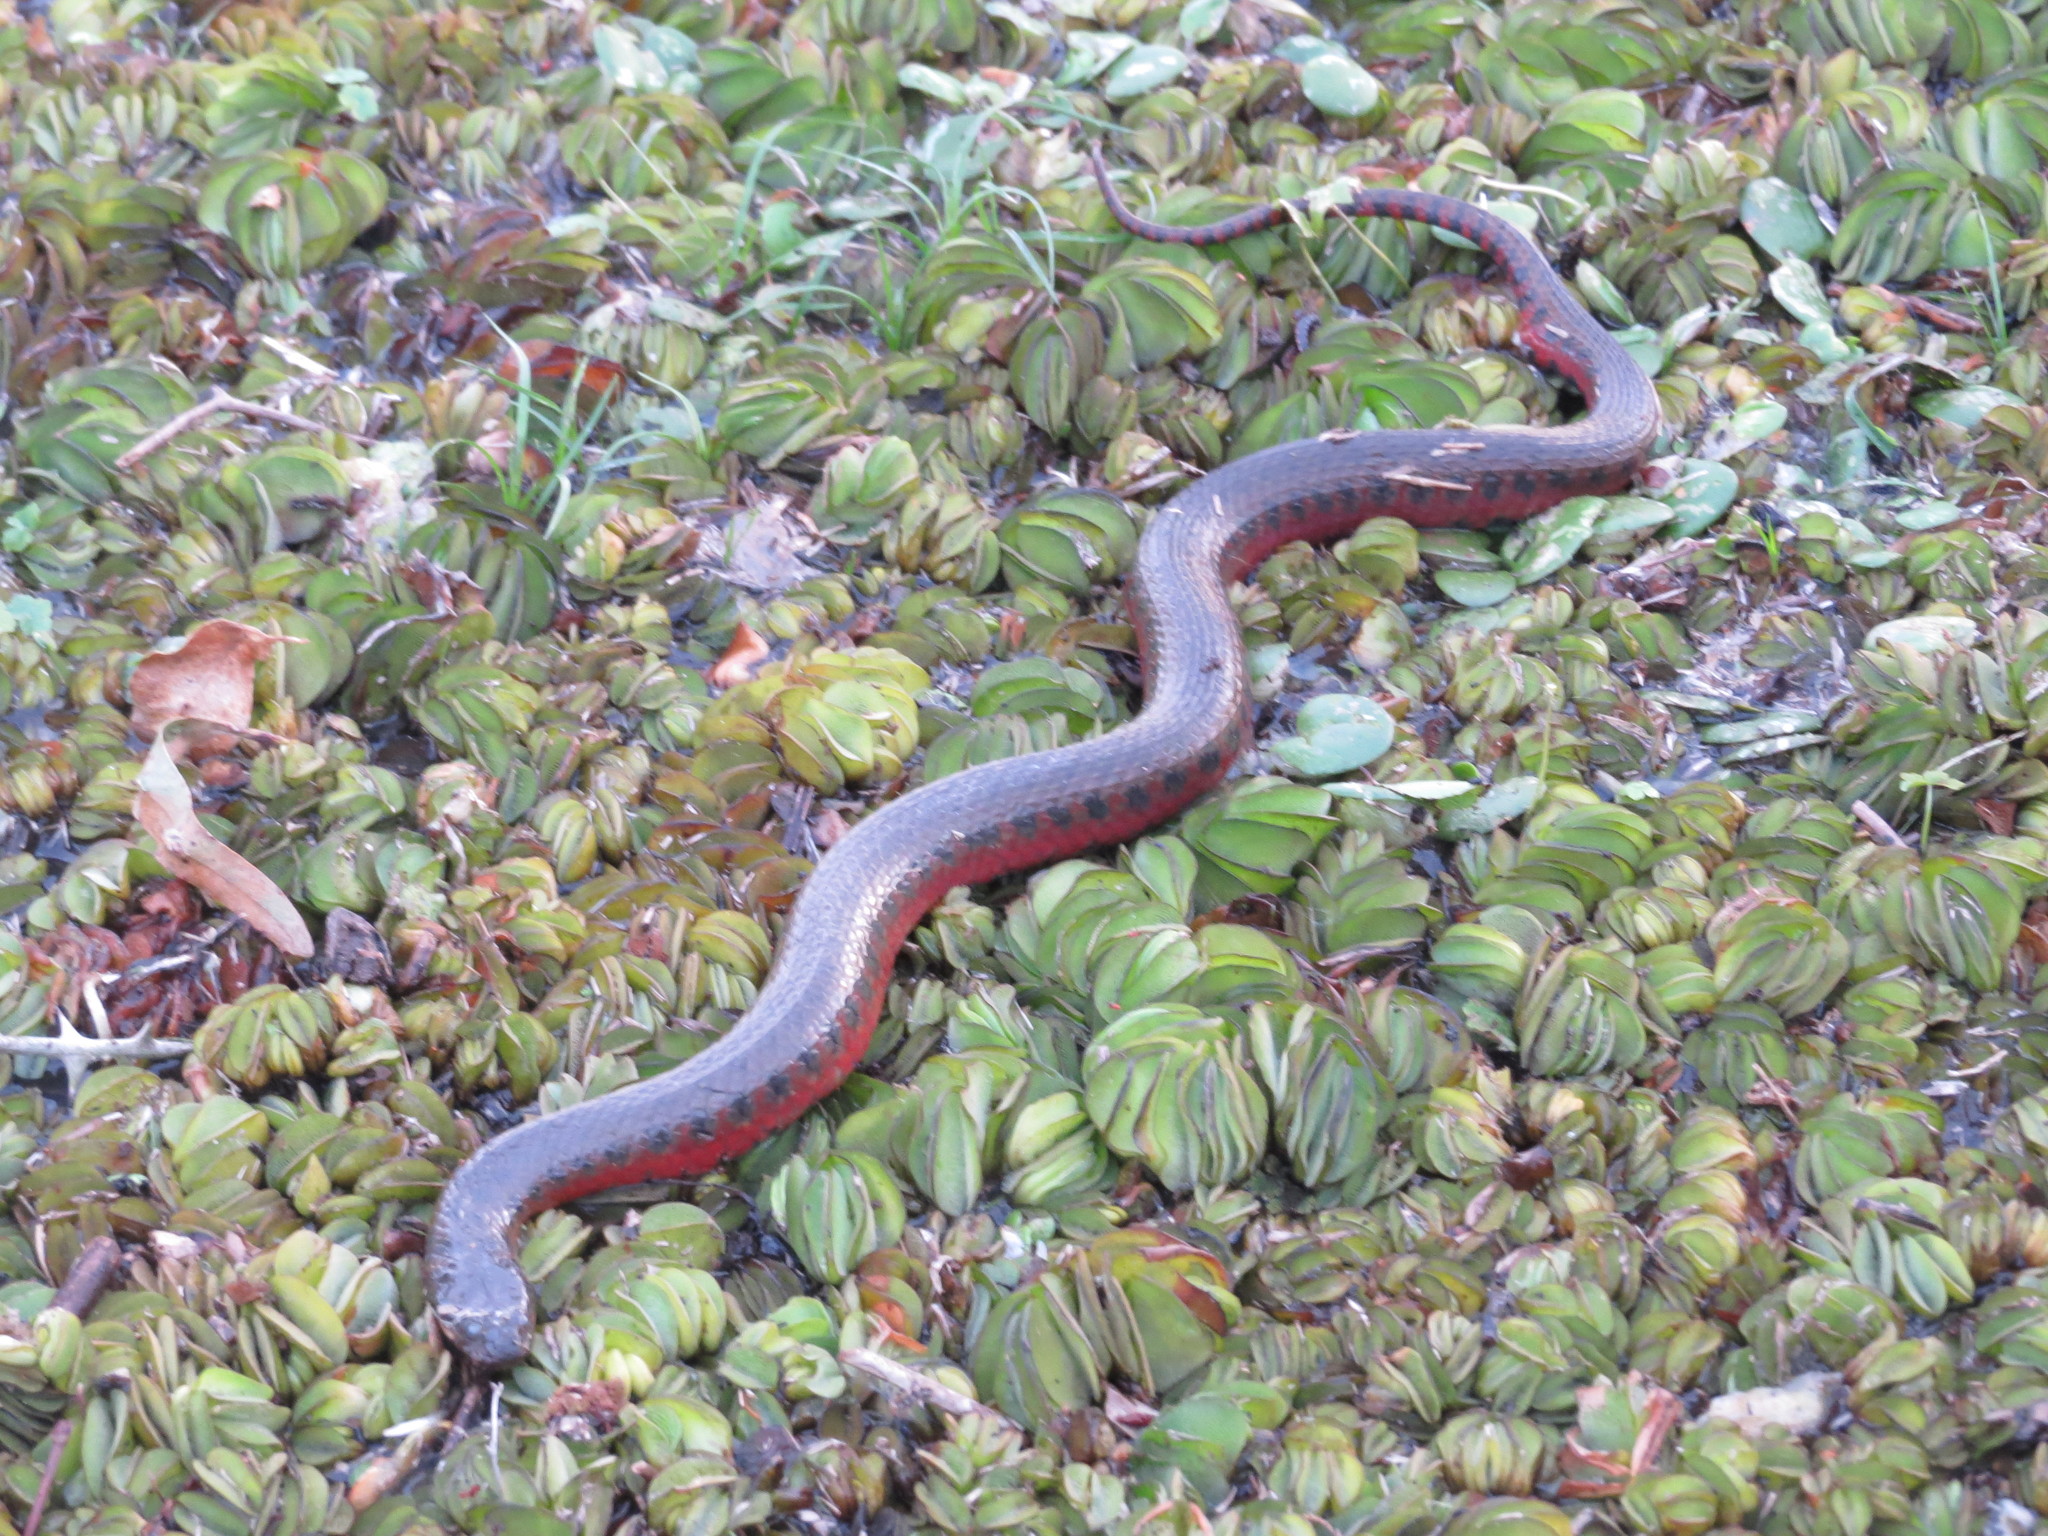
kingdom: Animalia
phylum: Chordata
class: Squamata
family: Colubridae
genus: Helicops
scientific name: Helicops leopardinus
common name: Leopard keelback
